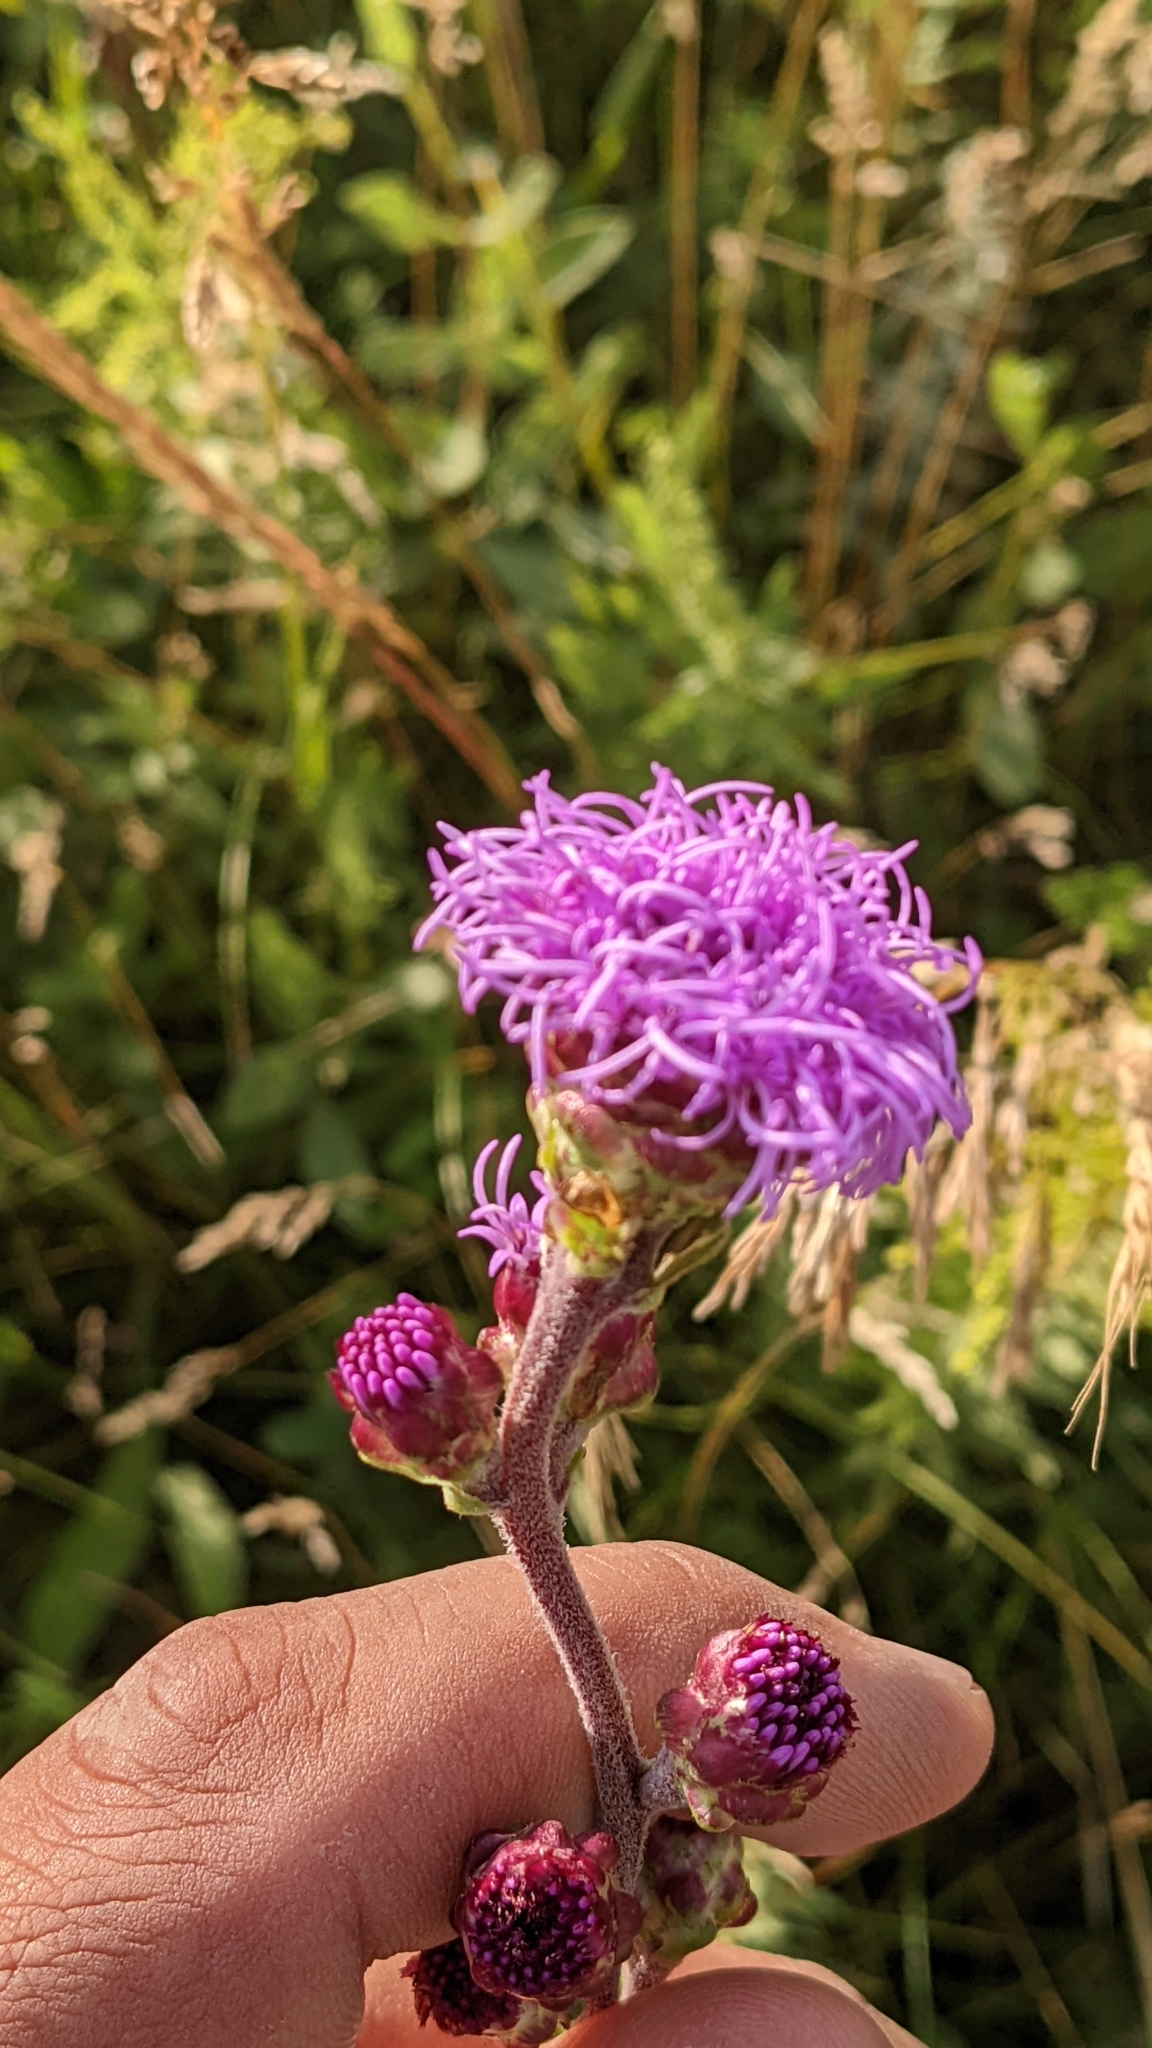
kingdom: Plantae
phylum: Tracheophyta
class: Magnoliopsida
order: Asterales
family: Asteraceae
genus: Liatris
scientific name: Liatris ligulistylis
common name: Northern plains gayfeather
